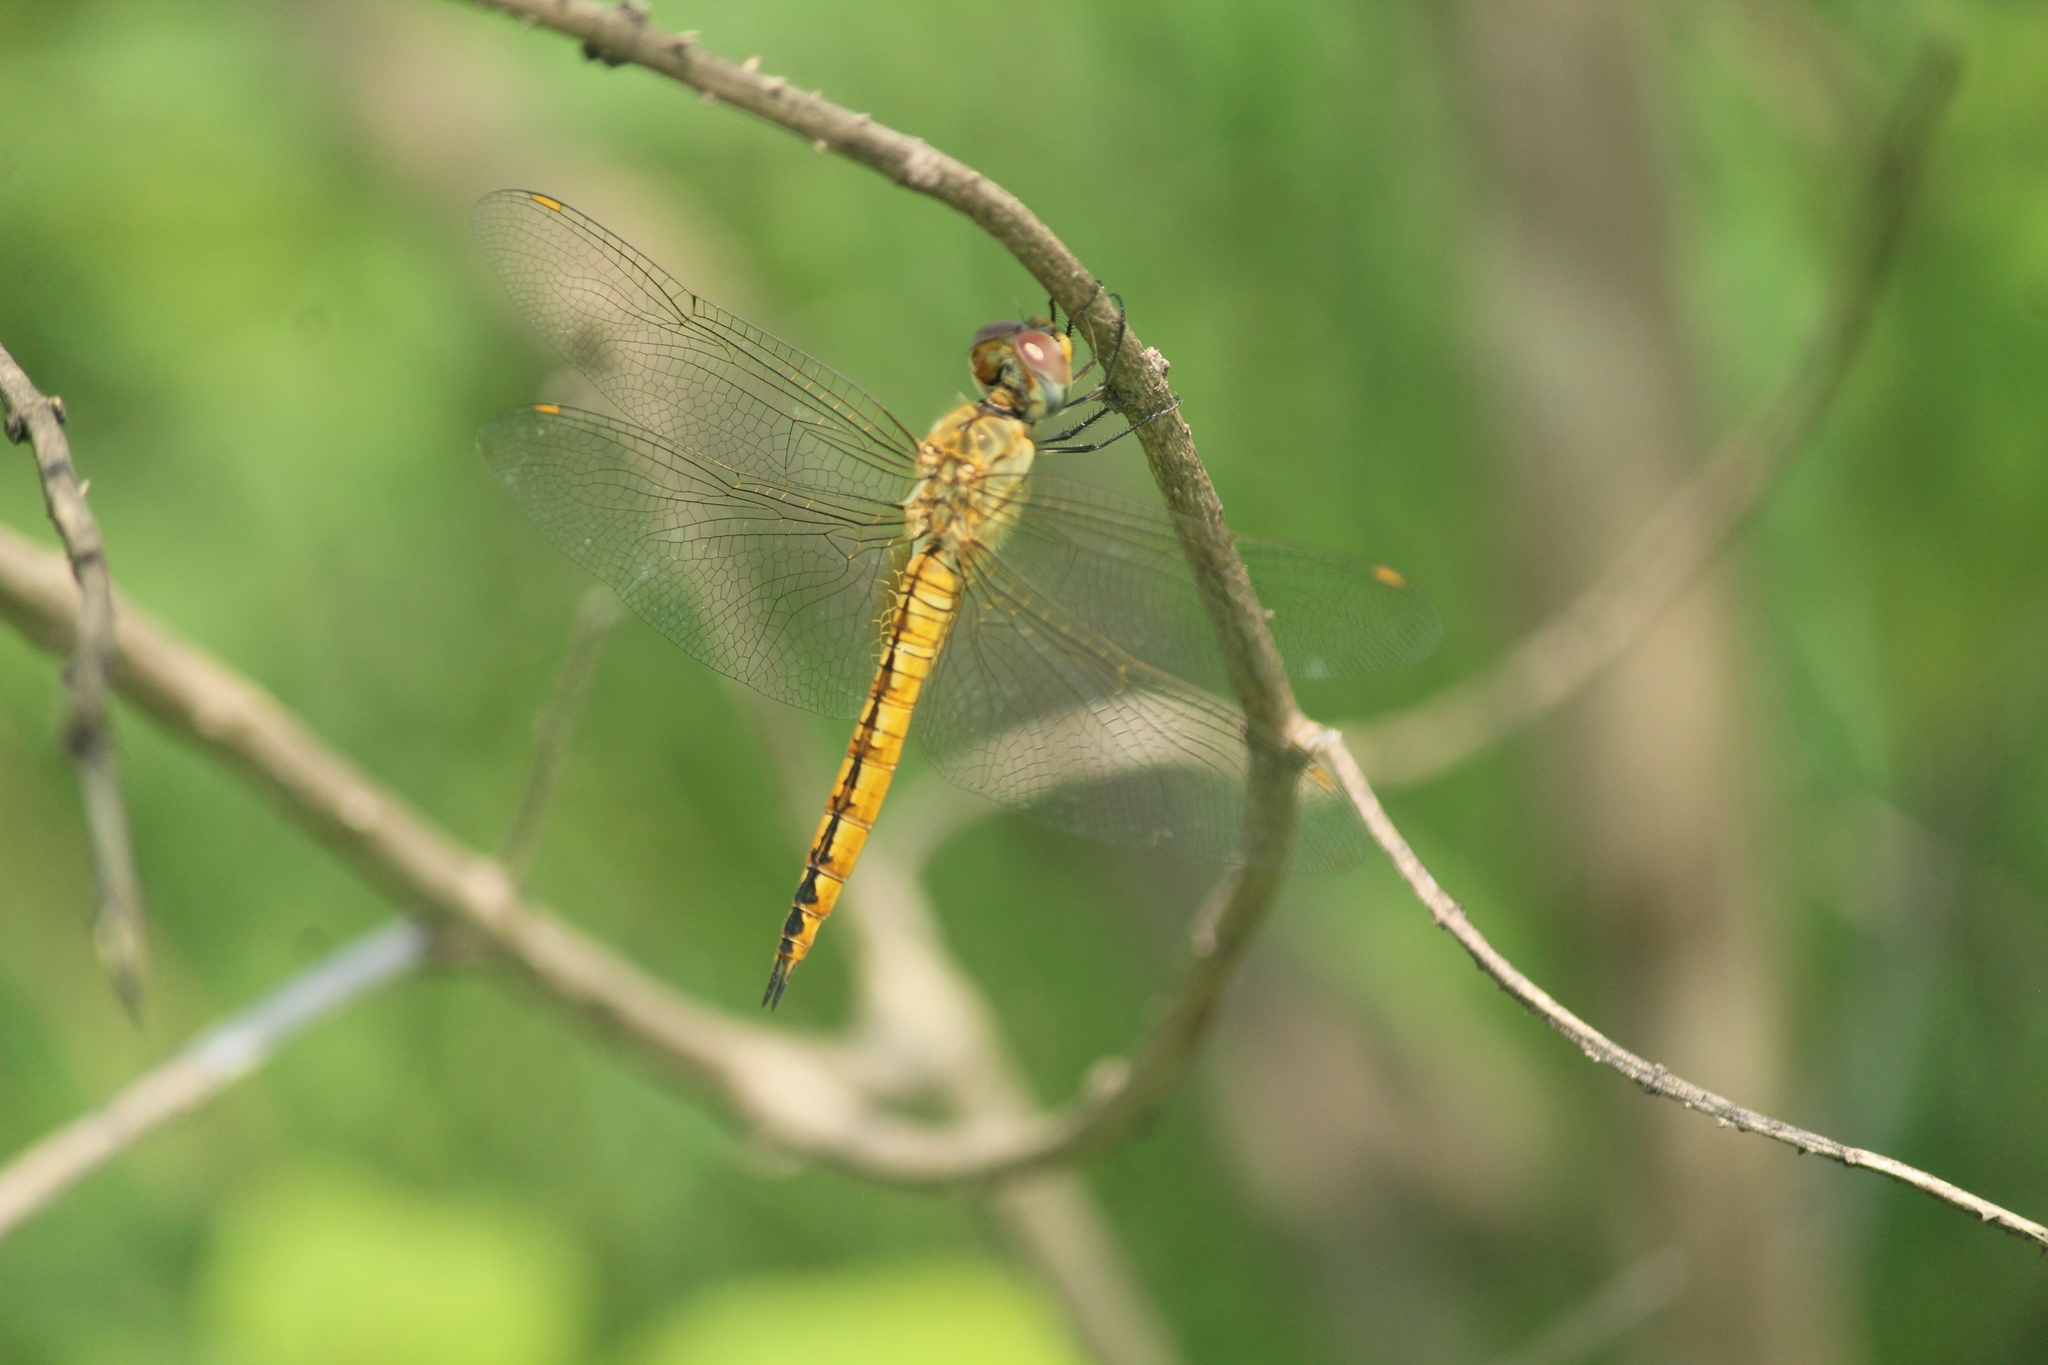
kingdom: Animalia
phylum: Arthropoda
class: Insecta
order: Odonata
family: Libellulidae
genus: Pantala
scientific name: Pantala flavescens
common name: Wandering glider
